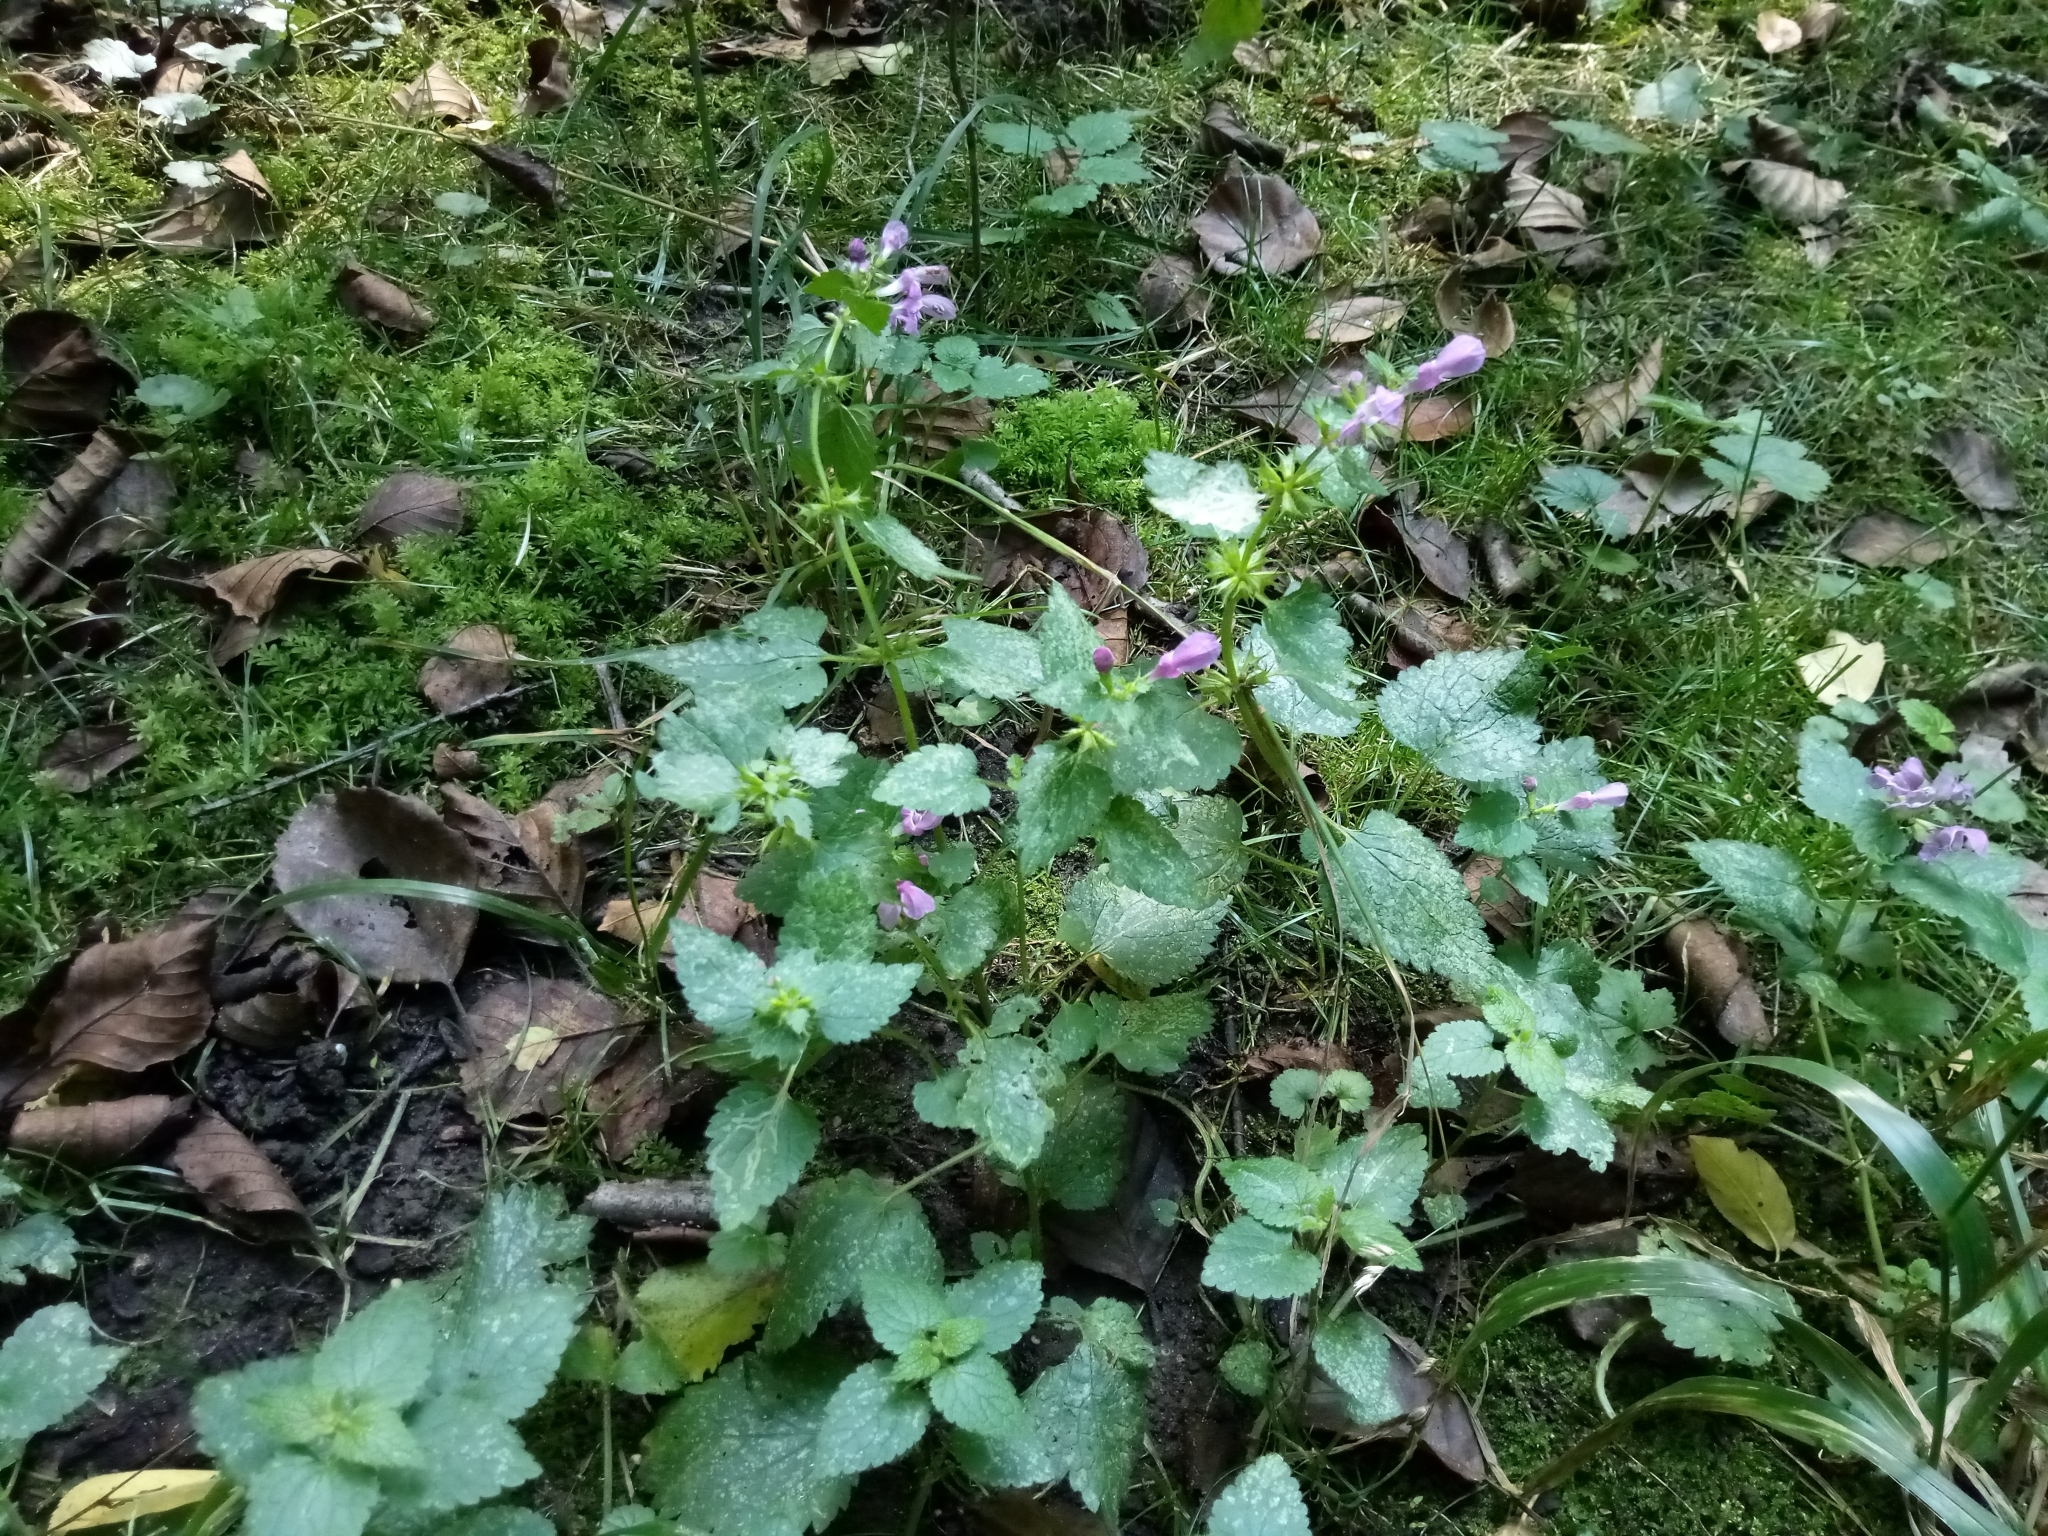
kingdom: Plantae
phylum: Tracheophyta
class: Magnoliopsida
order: Lamiales
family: Lamiaceae
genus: Lamium
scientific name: Lamium maculatum
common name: Spotted dead-nettle
